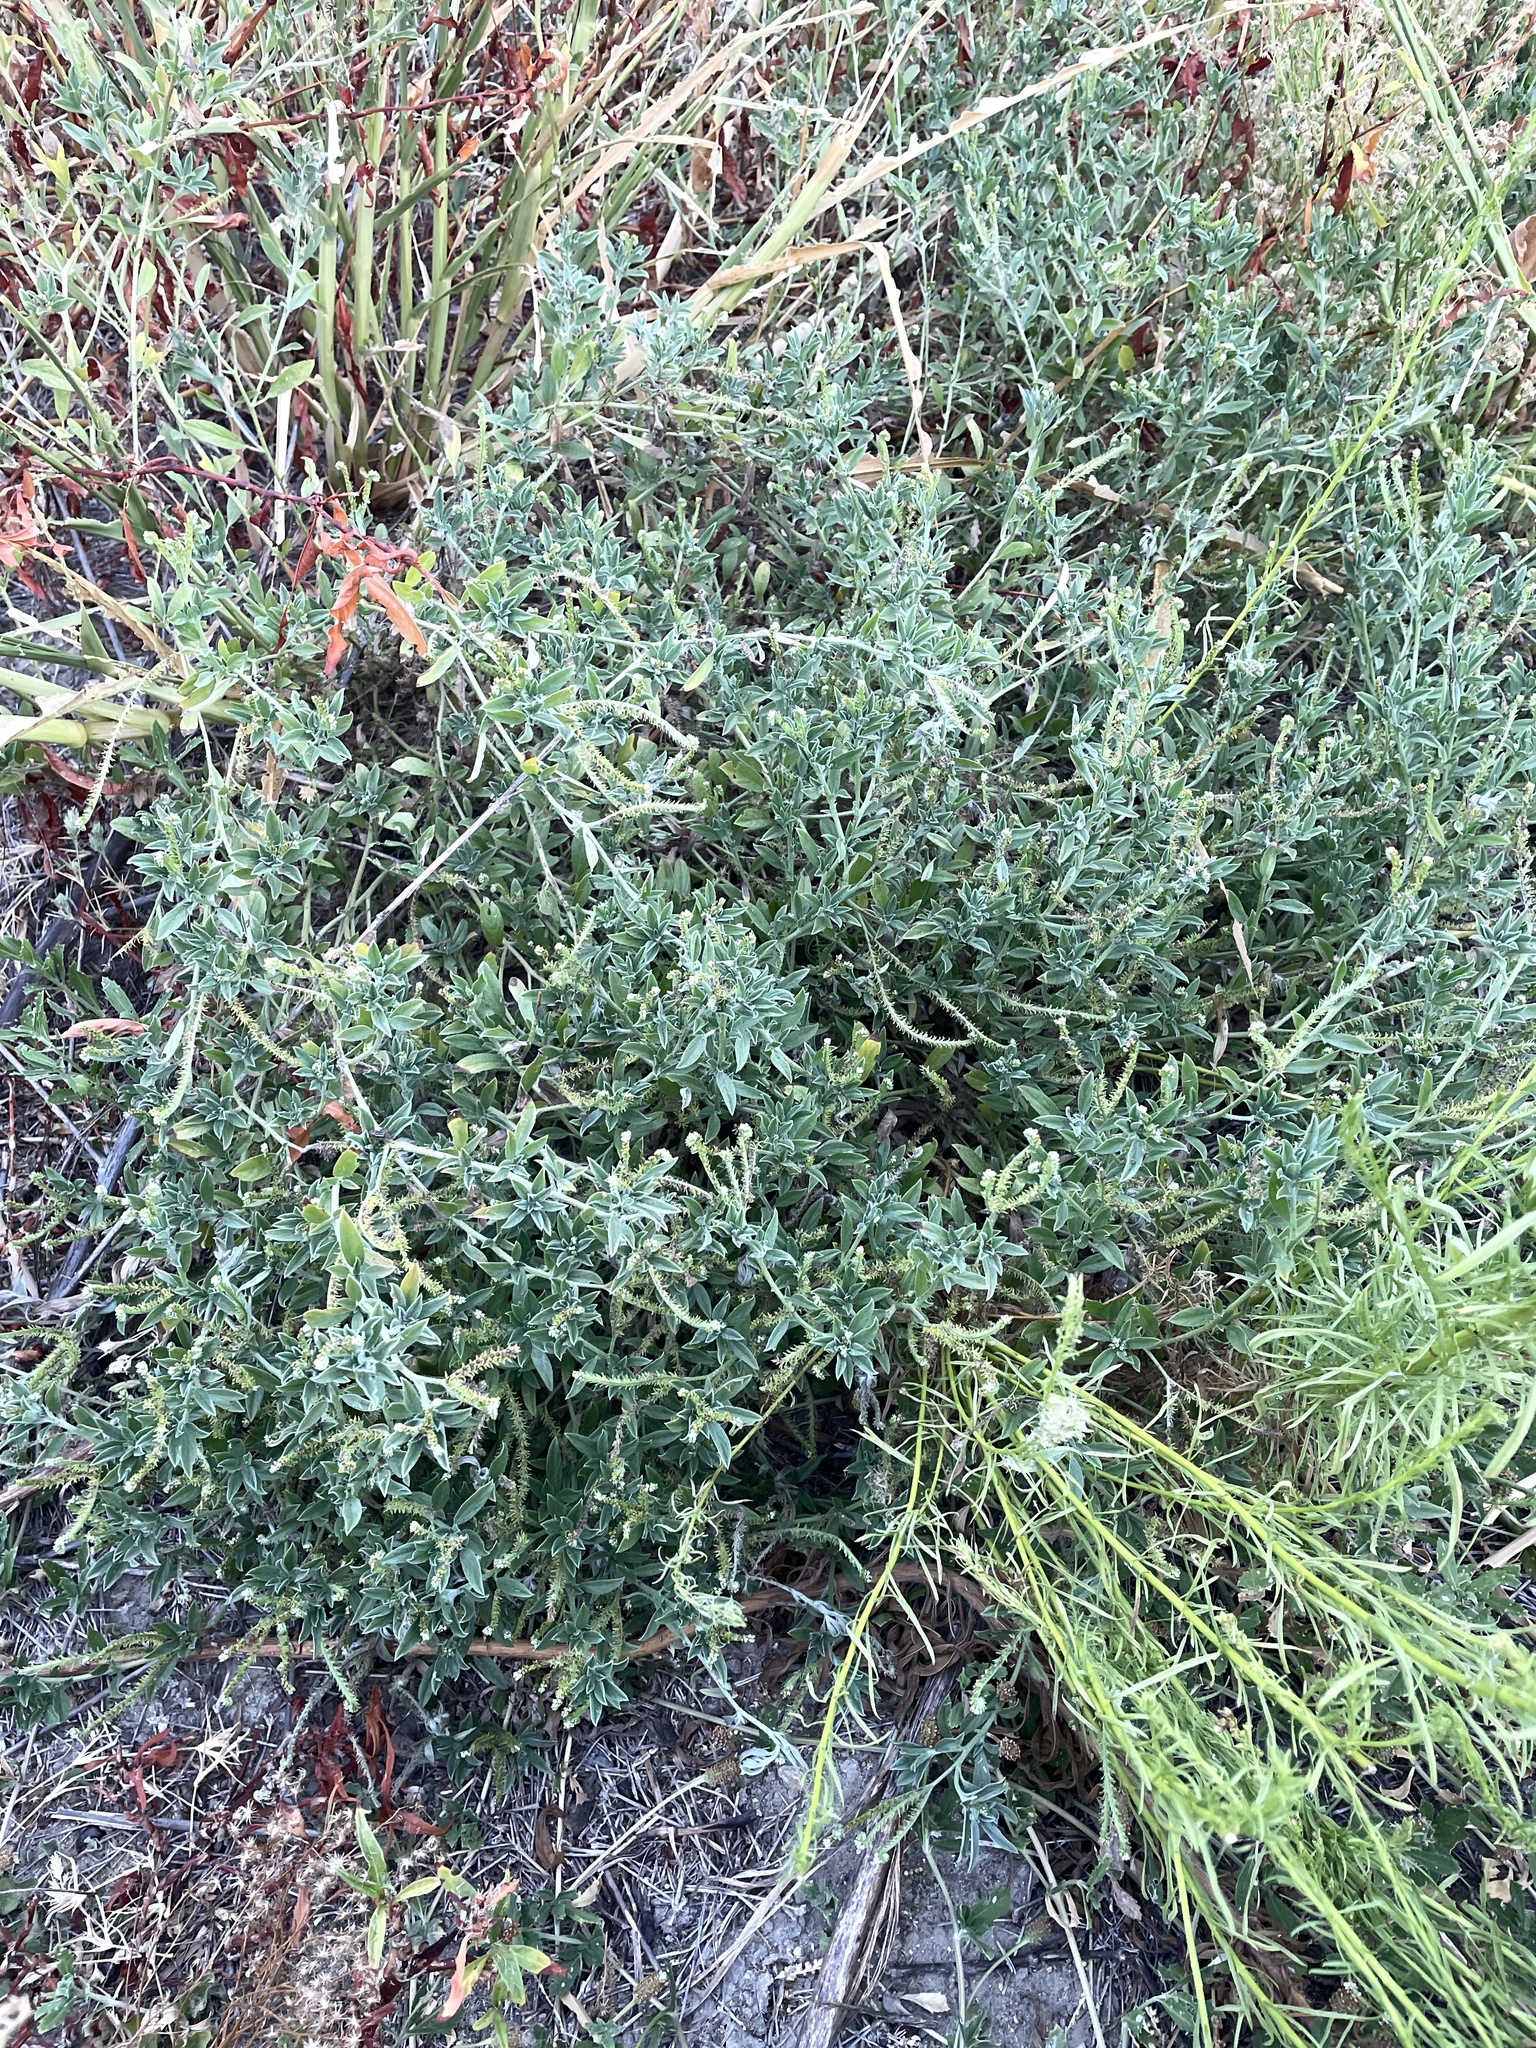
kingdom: Plantae
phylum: Tracheophyta
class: Magnoliopsida
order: Boraginales
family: Heliotropiaceae
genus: Euploca
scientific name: Euploca procumbens
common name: Fourspike heliotrope
